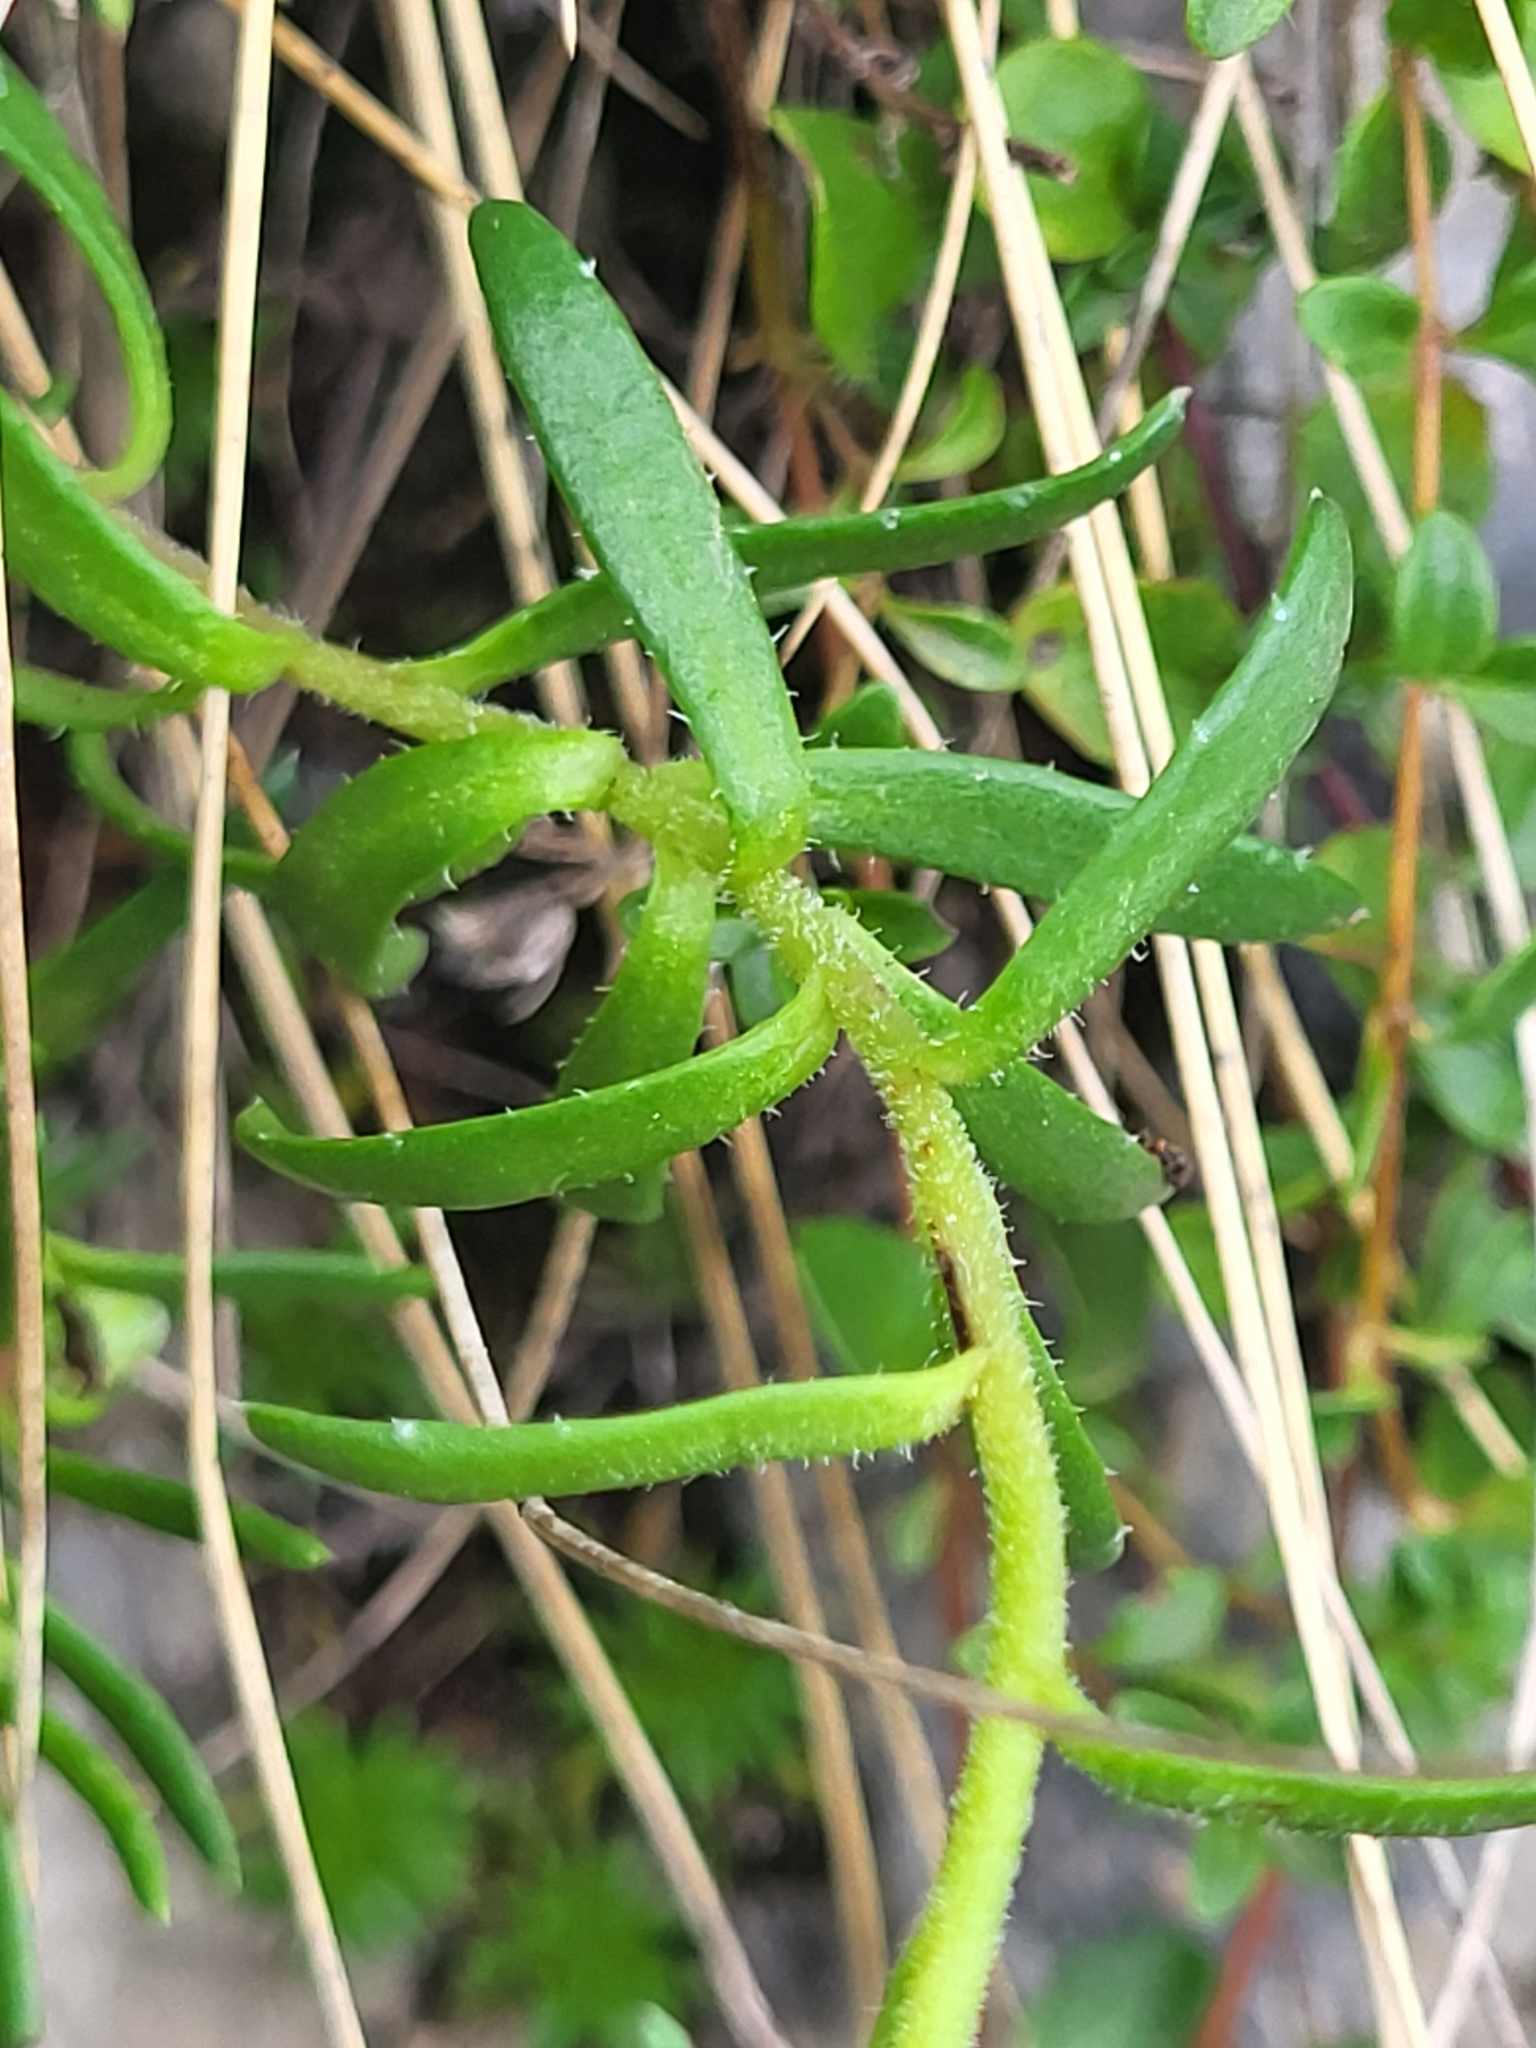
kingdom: Plantae
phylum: Tracheophyta
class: Magnoliopsida
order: Saxifragales
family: Saxifragaceae
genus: Saxifraga
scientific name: Saxifraga aizoides
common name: Yellow mountain saxifrage
